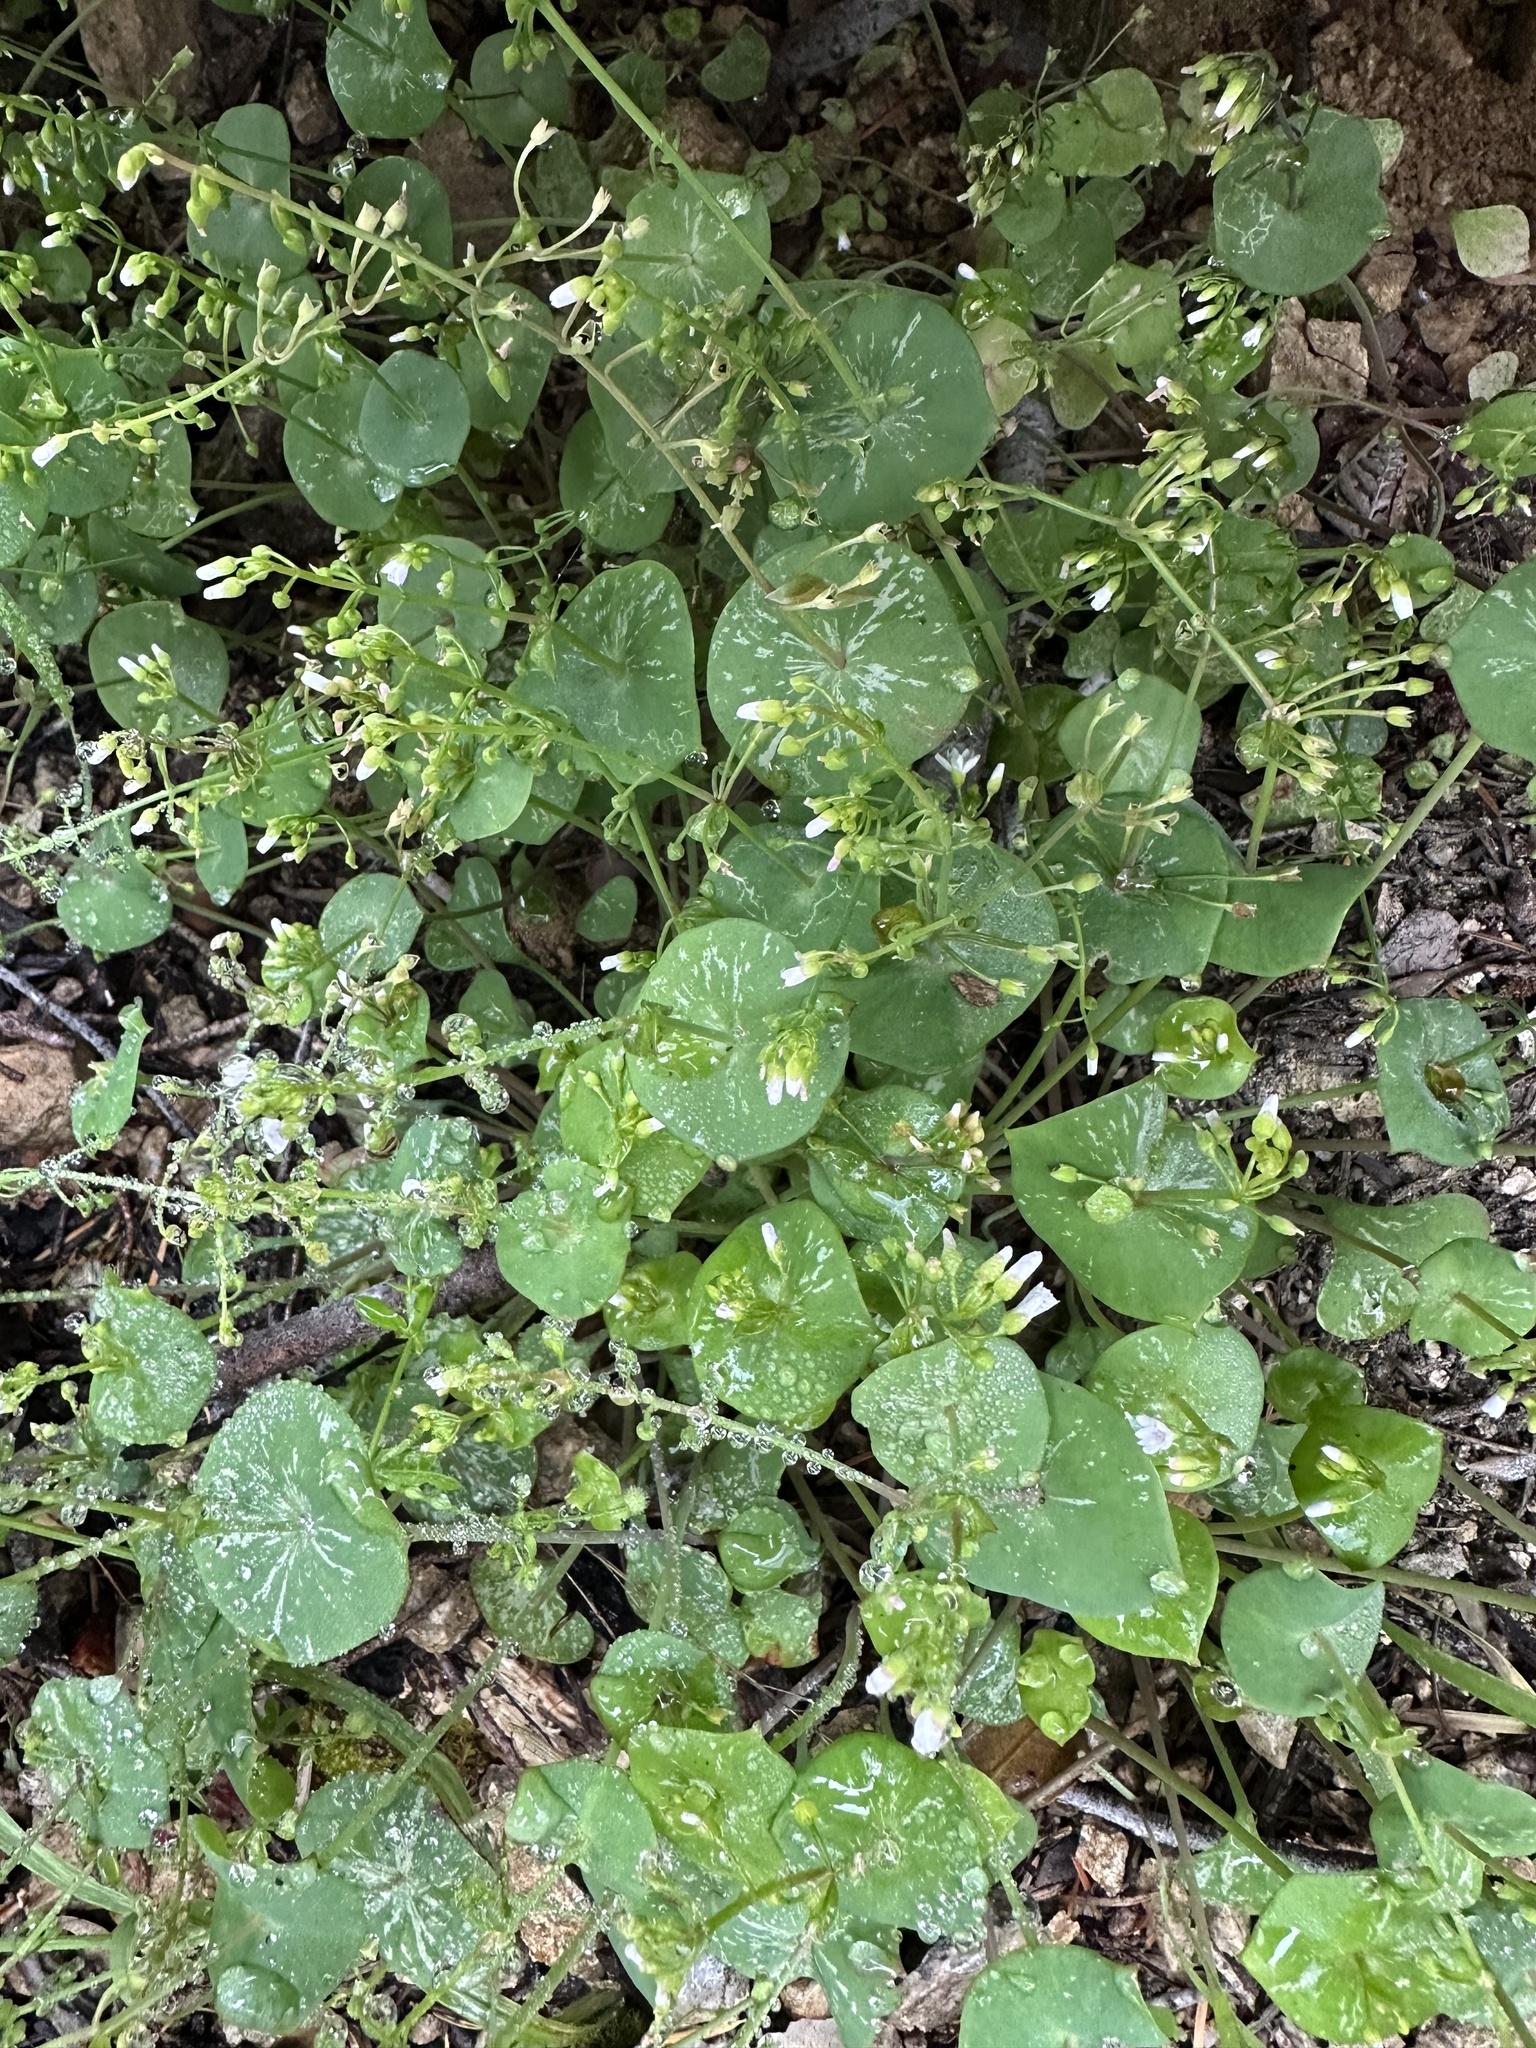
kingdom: Plantae
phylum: Tracheophyta
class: Magnoliopsida
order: Caryophyllales
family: Montiaceae
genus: Claytonia
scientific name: Claytonia perfoliata
